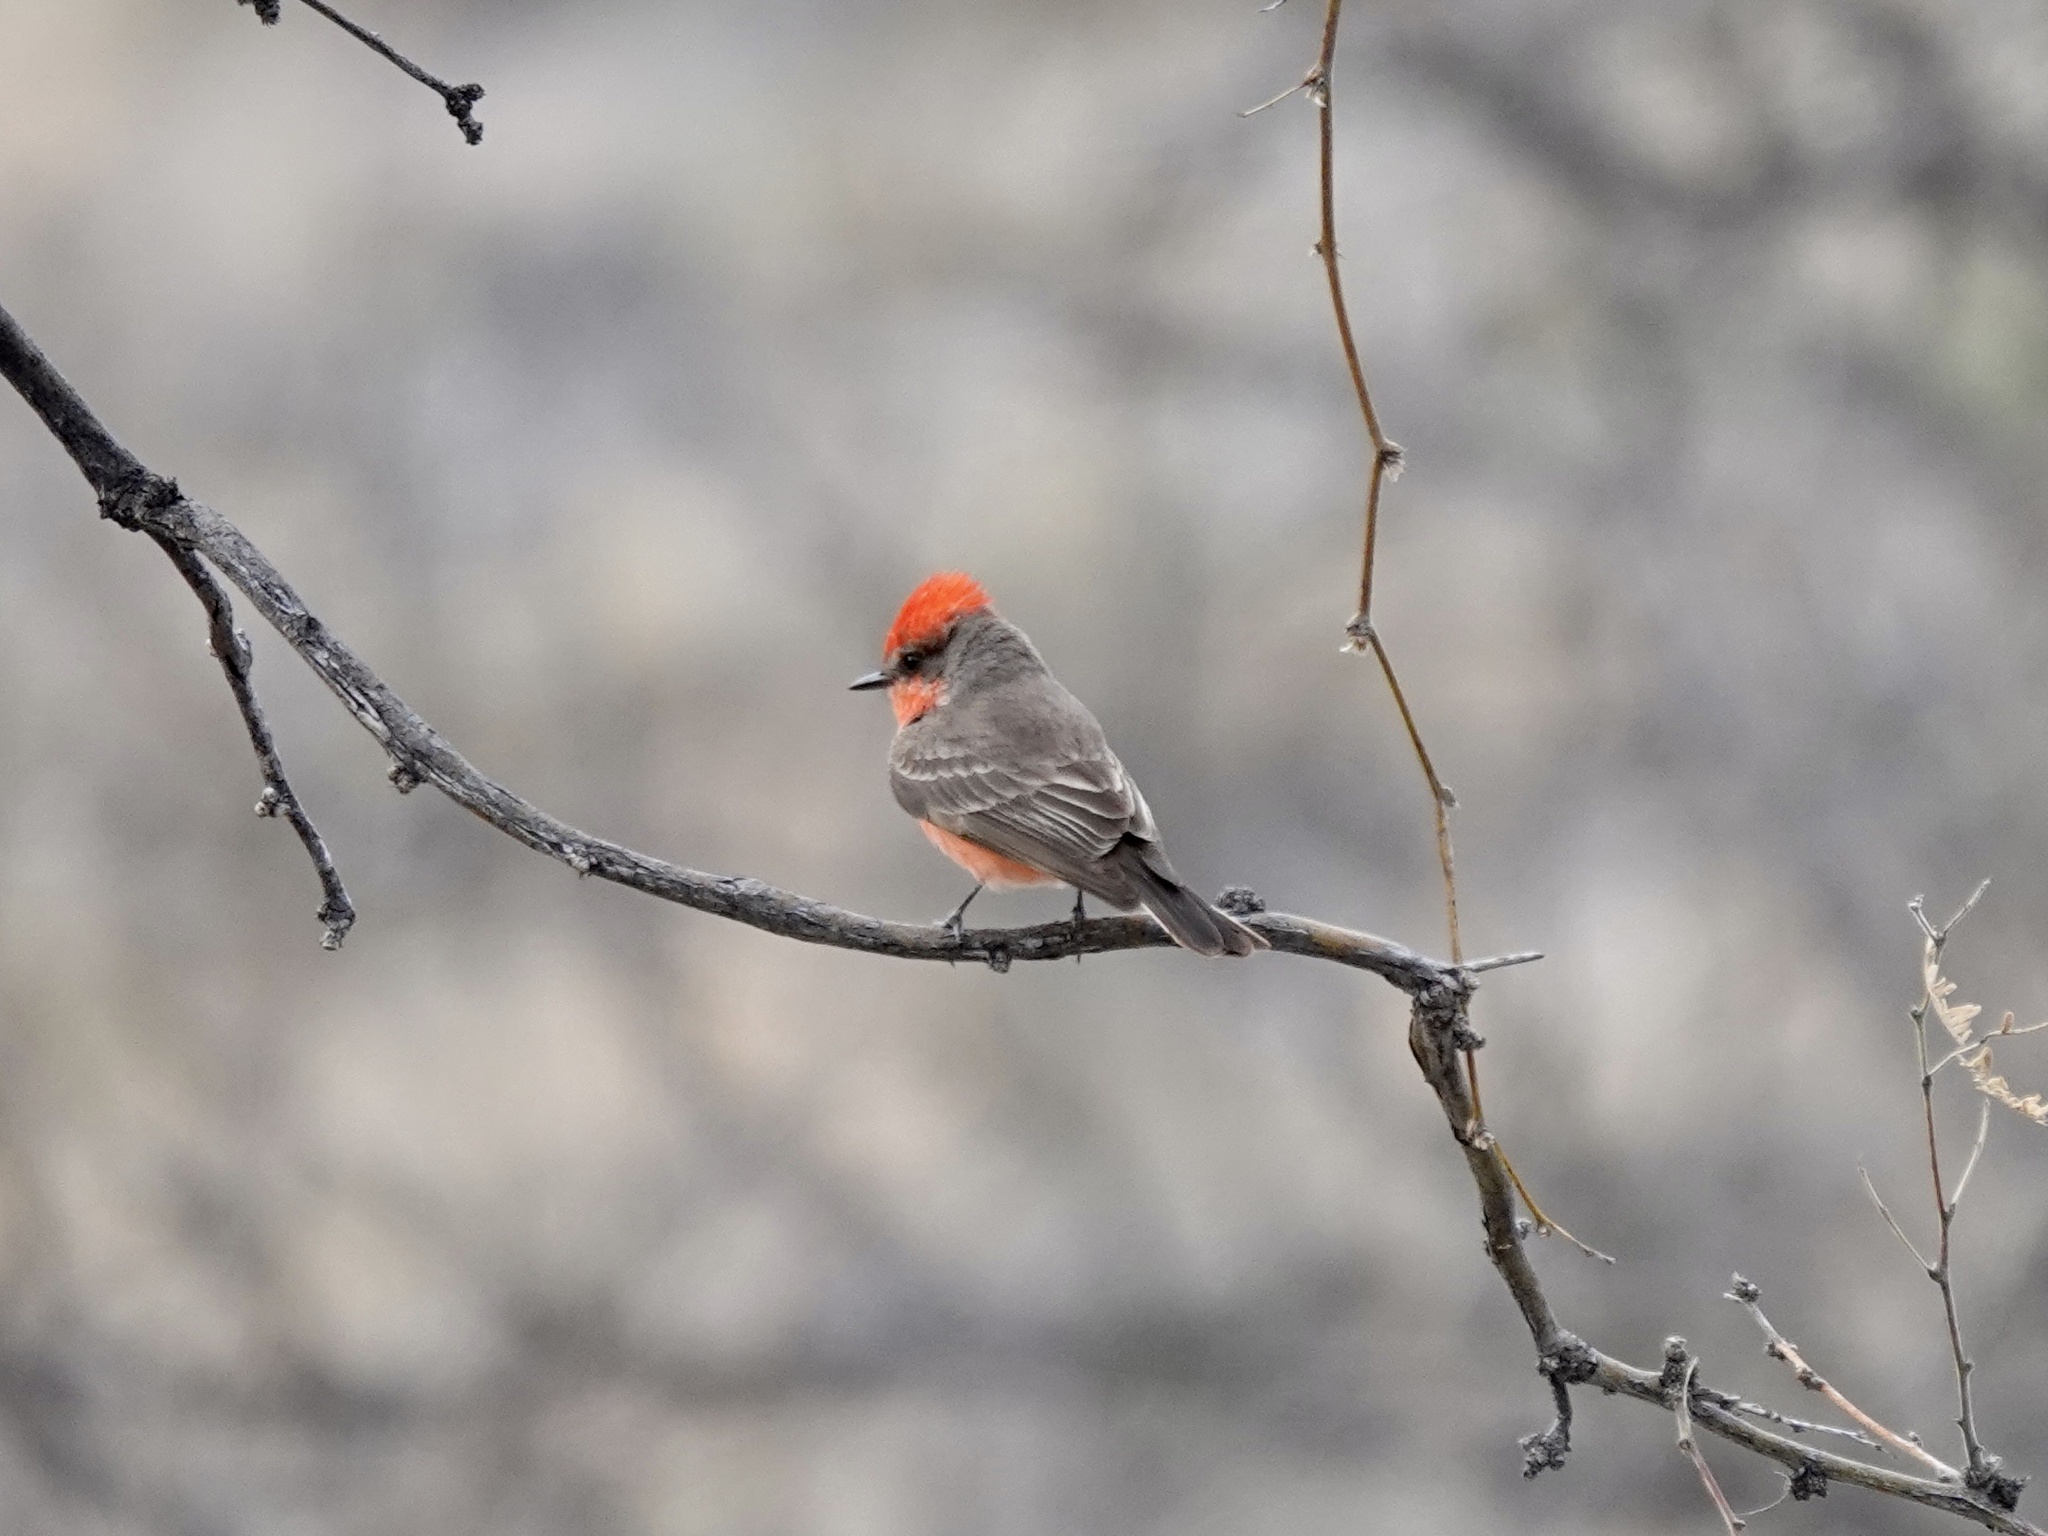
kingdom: Animalia
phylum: Chordata
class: Aves
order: Passeriformes
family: Tyrannidae
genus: Pyrocephalus
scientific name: Pyrocephalus rubinus
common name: Vermilion flycatcher
